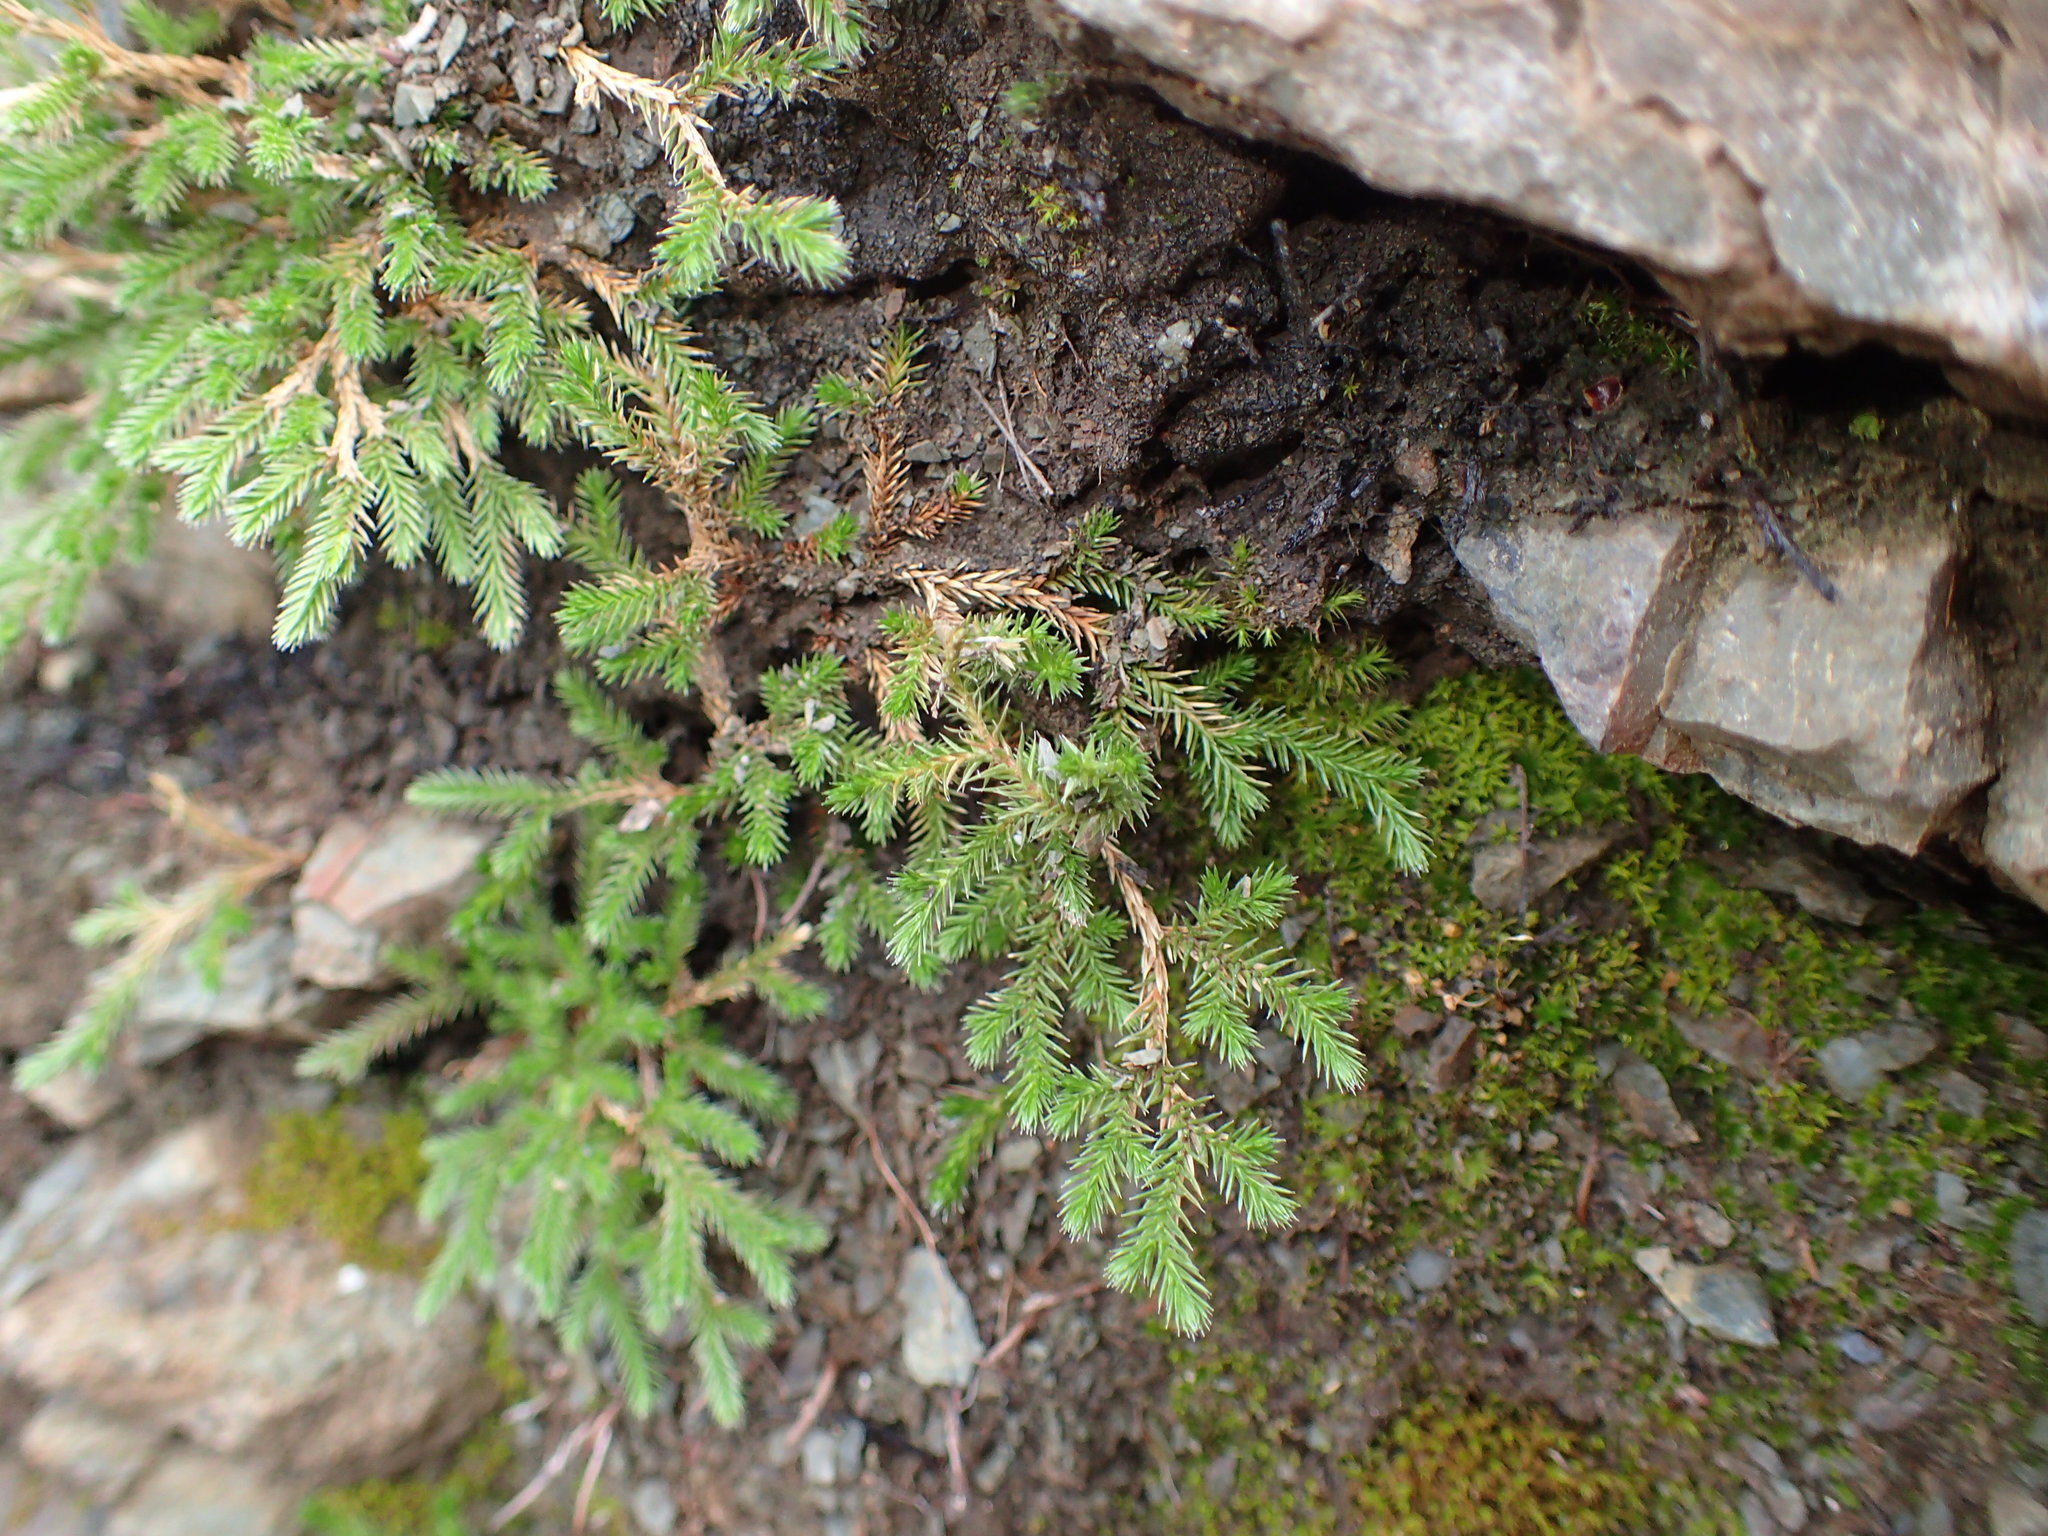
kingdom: Plantae
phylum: Tracheophyta
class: Lycopodiopsida
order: Selaginellales
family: Selaginellaceae
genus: Selaginella
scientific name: Selaginella bigelovii
